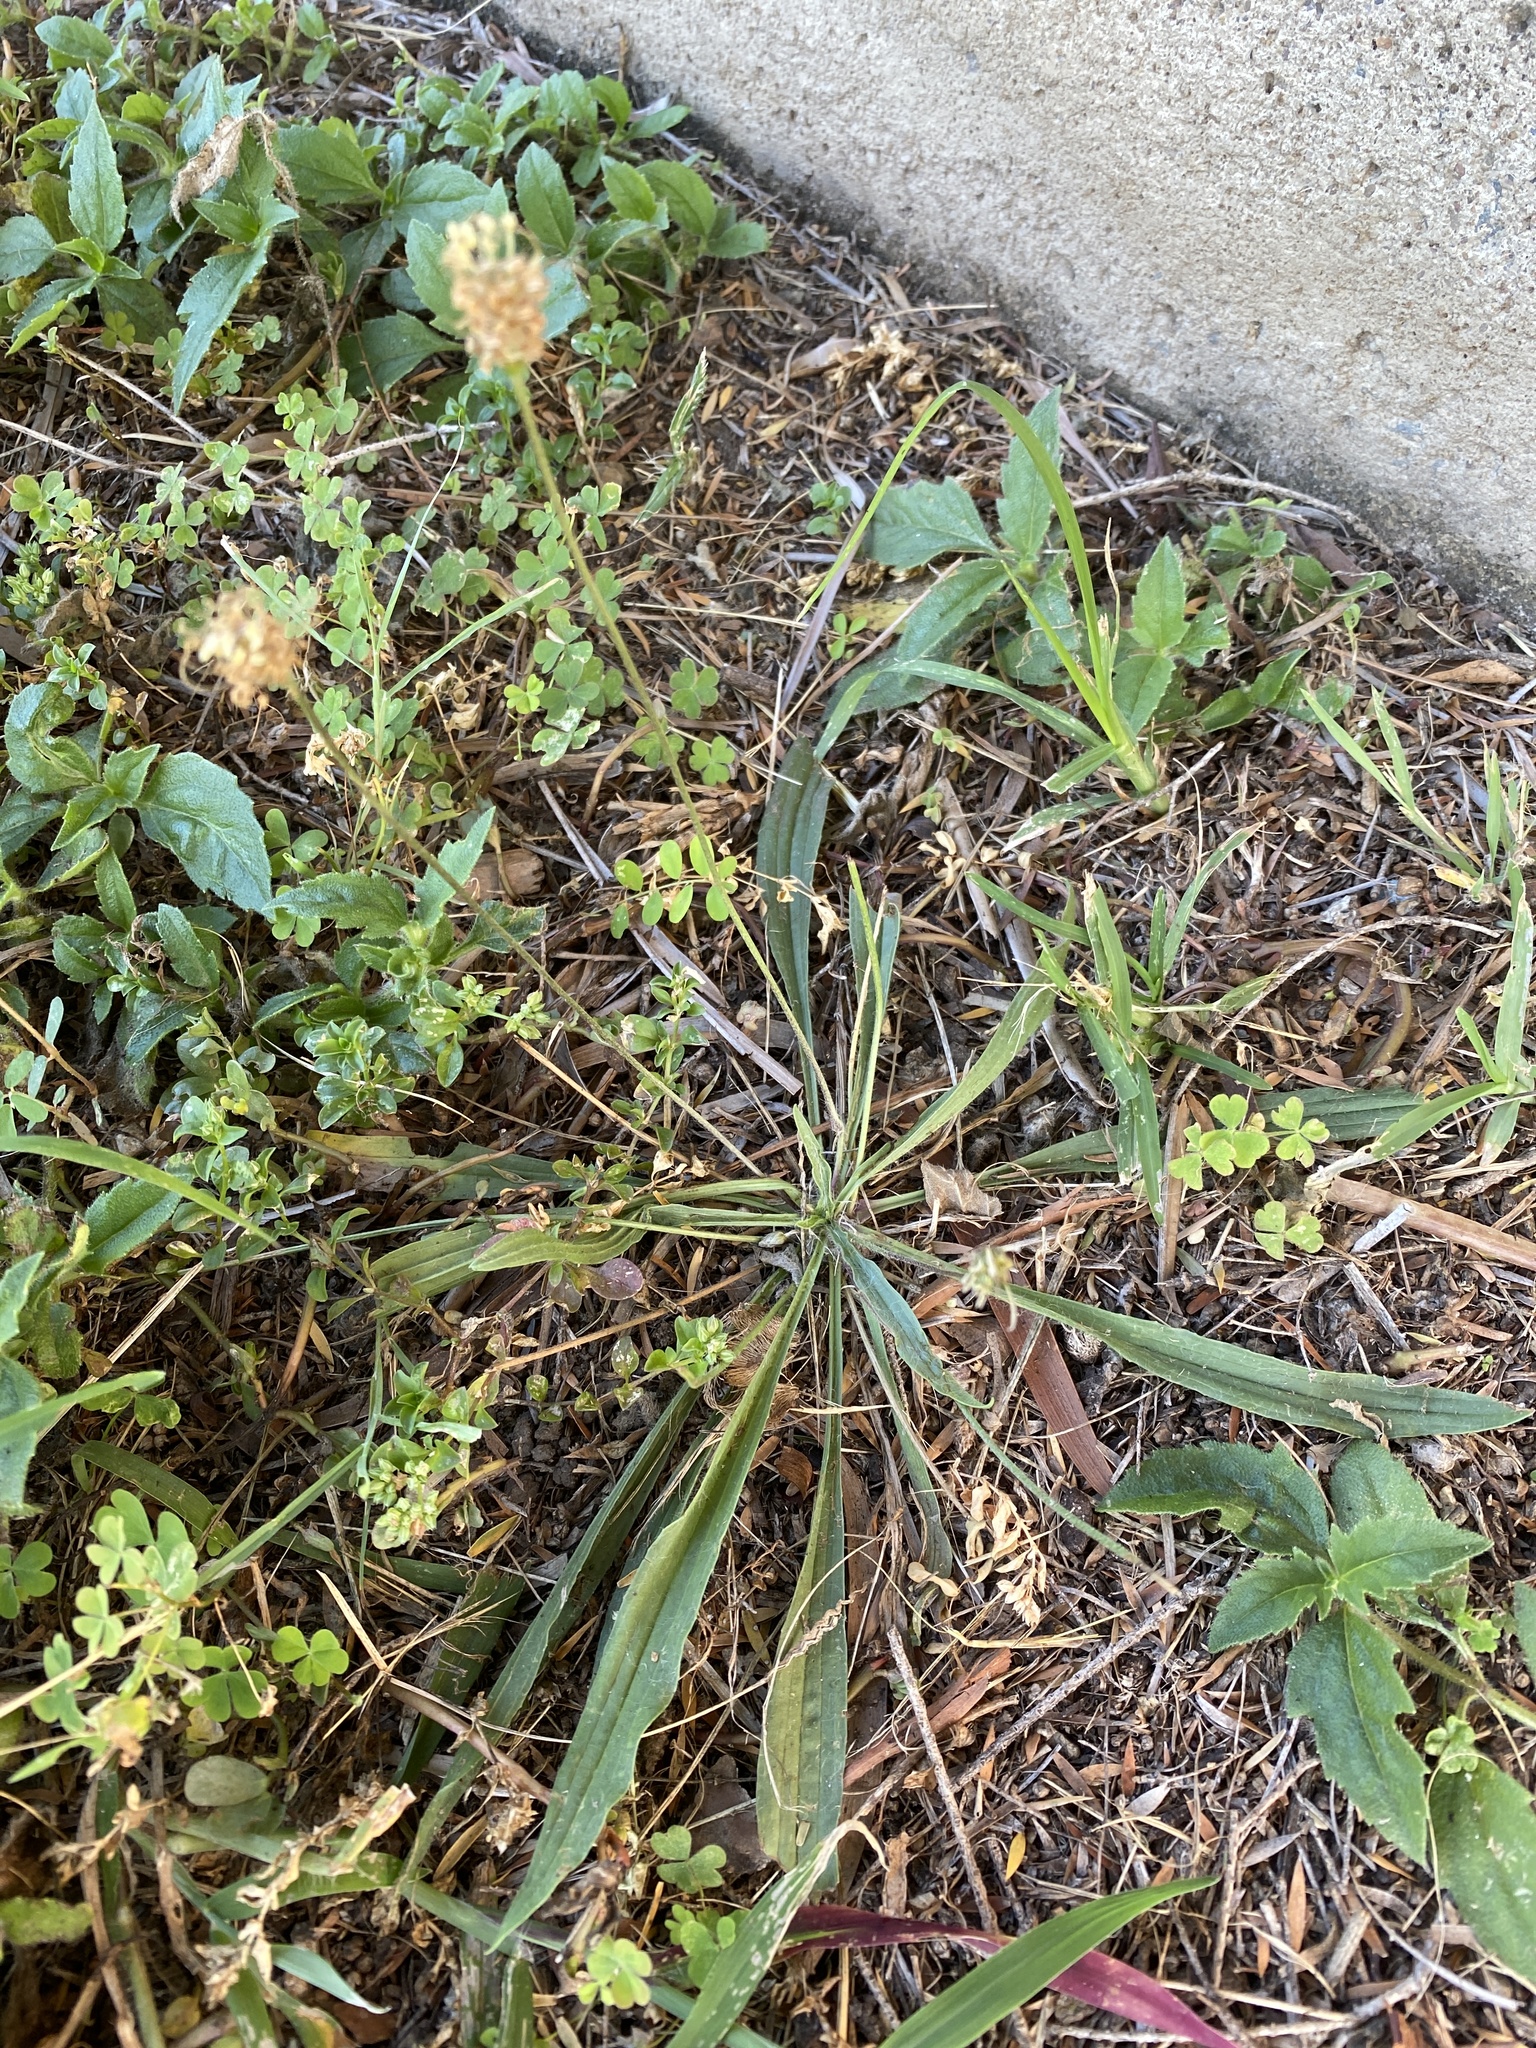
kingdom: Plantae
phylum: Tracheophyta
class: Magnoliopsida
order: Lamiales
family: Plantaginaceae
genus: Plantago
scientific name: Plantago lanceolata
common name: Ribwort plantain
